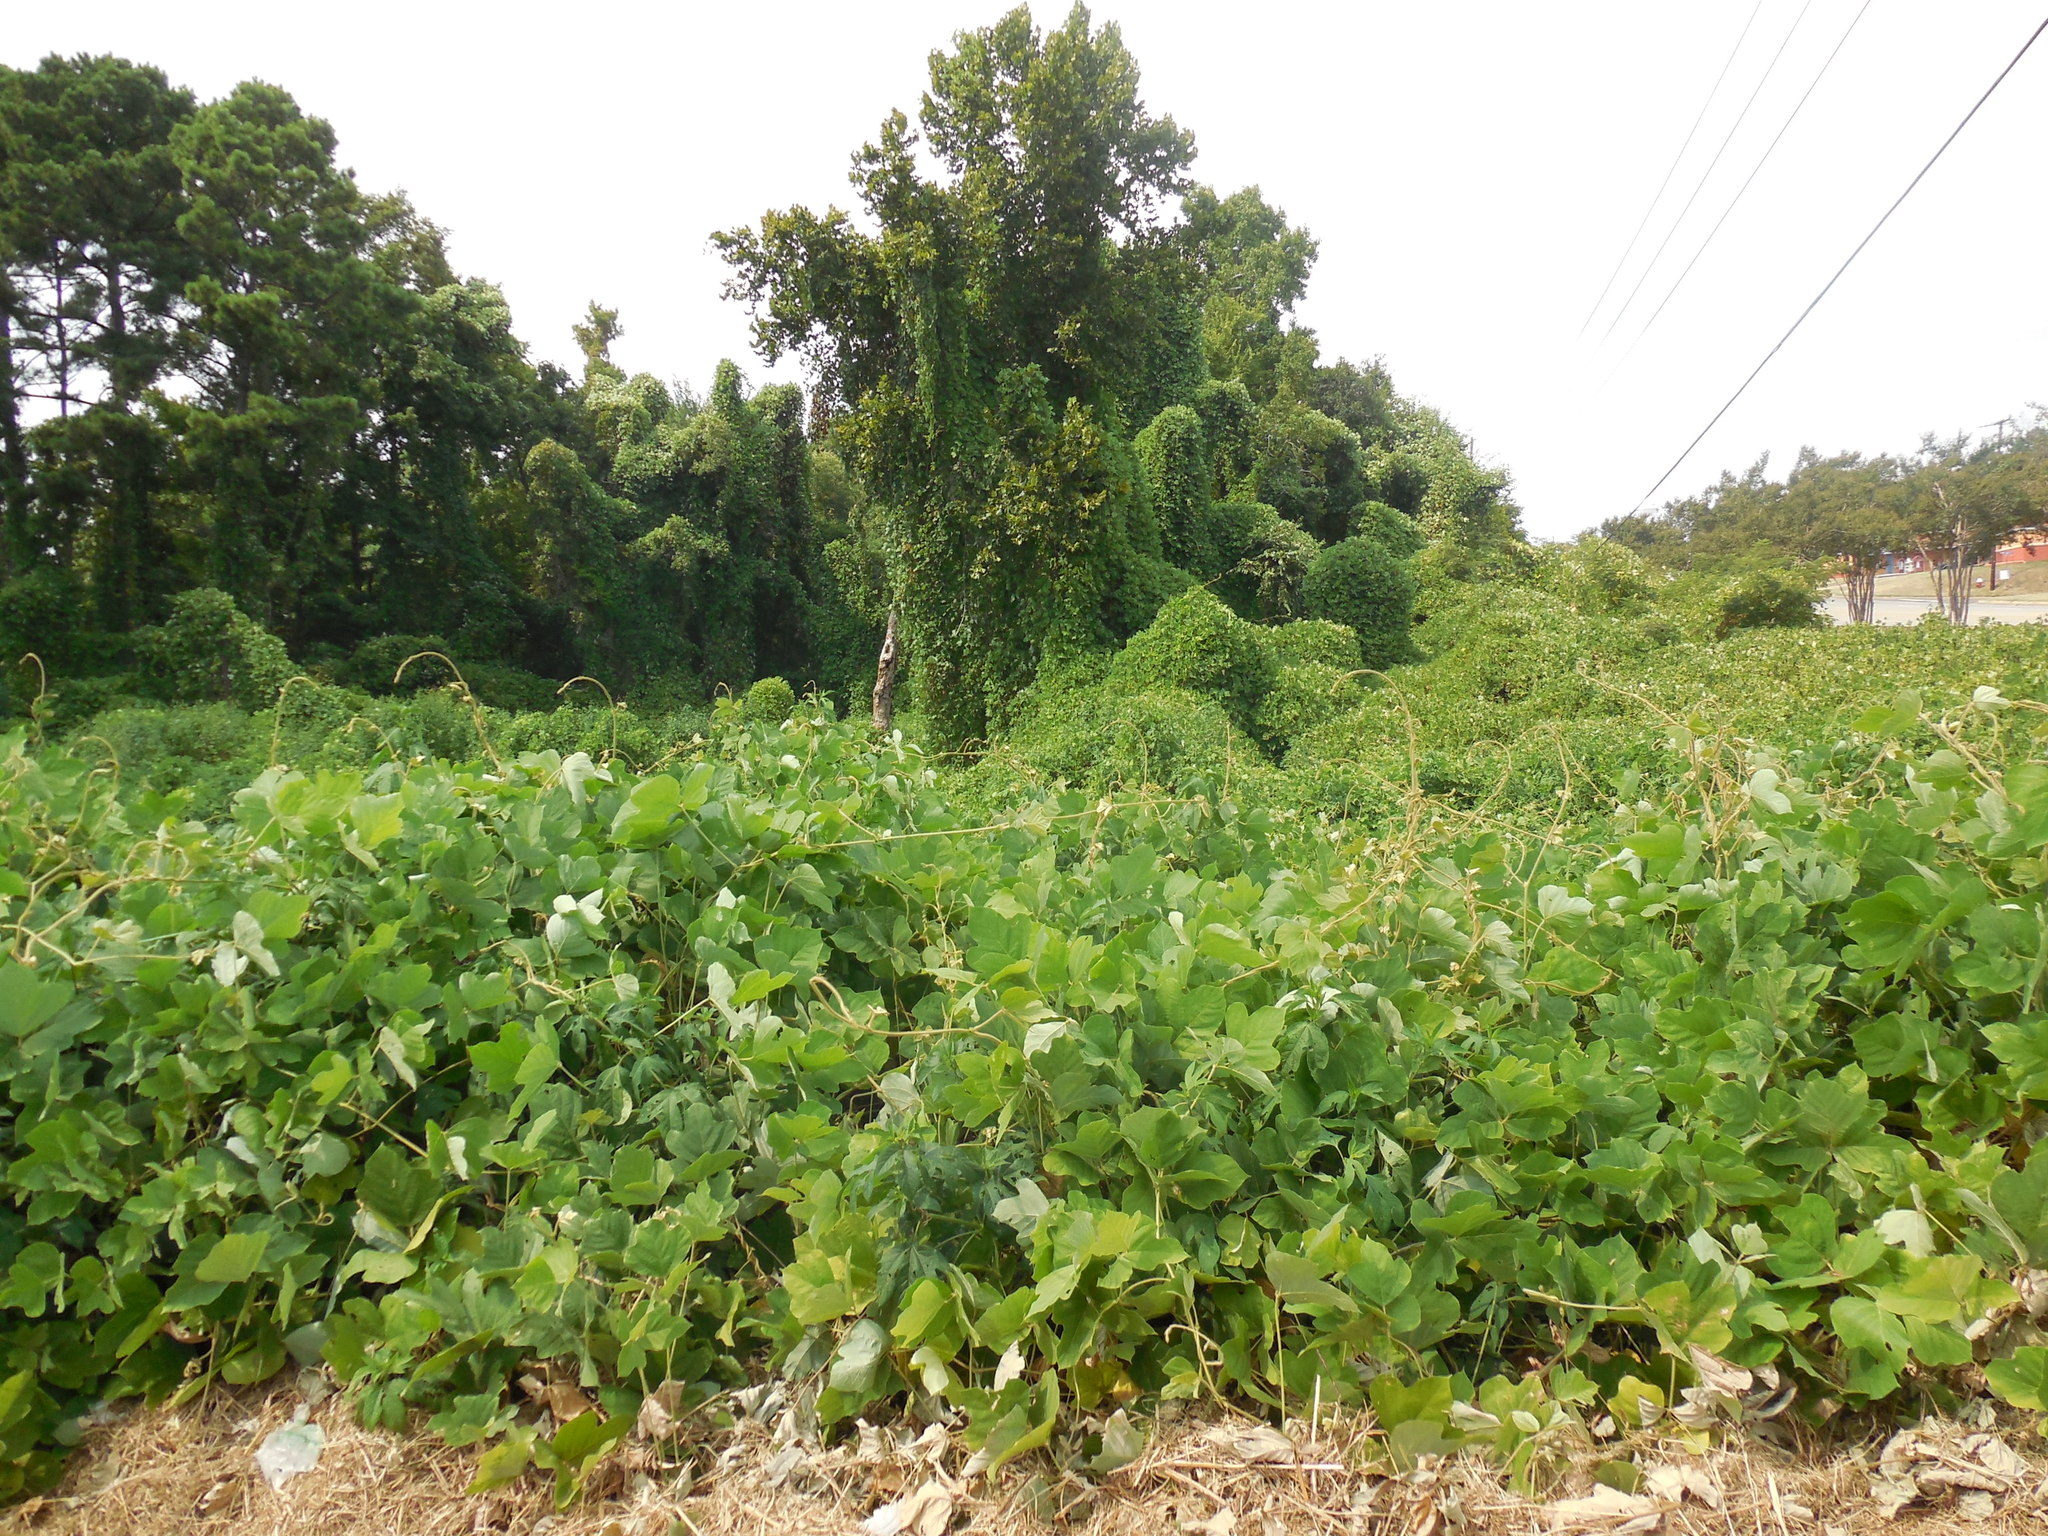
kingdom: Plantae
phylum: Tracheophyta
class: Magnoliopsida
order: Fabales
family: Fabaceae
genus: Pueraria
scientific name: Pueraria montana
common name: Kudzu
